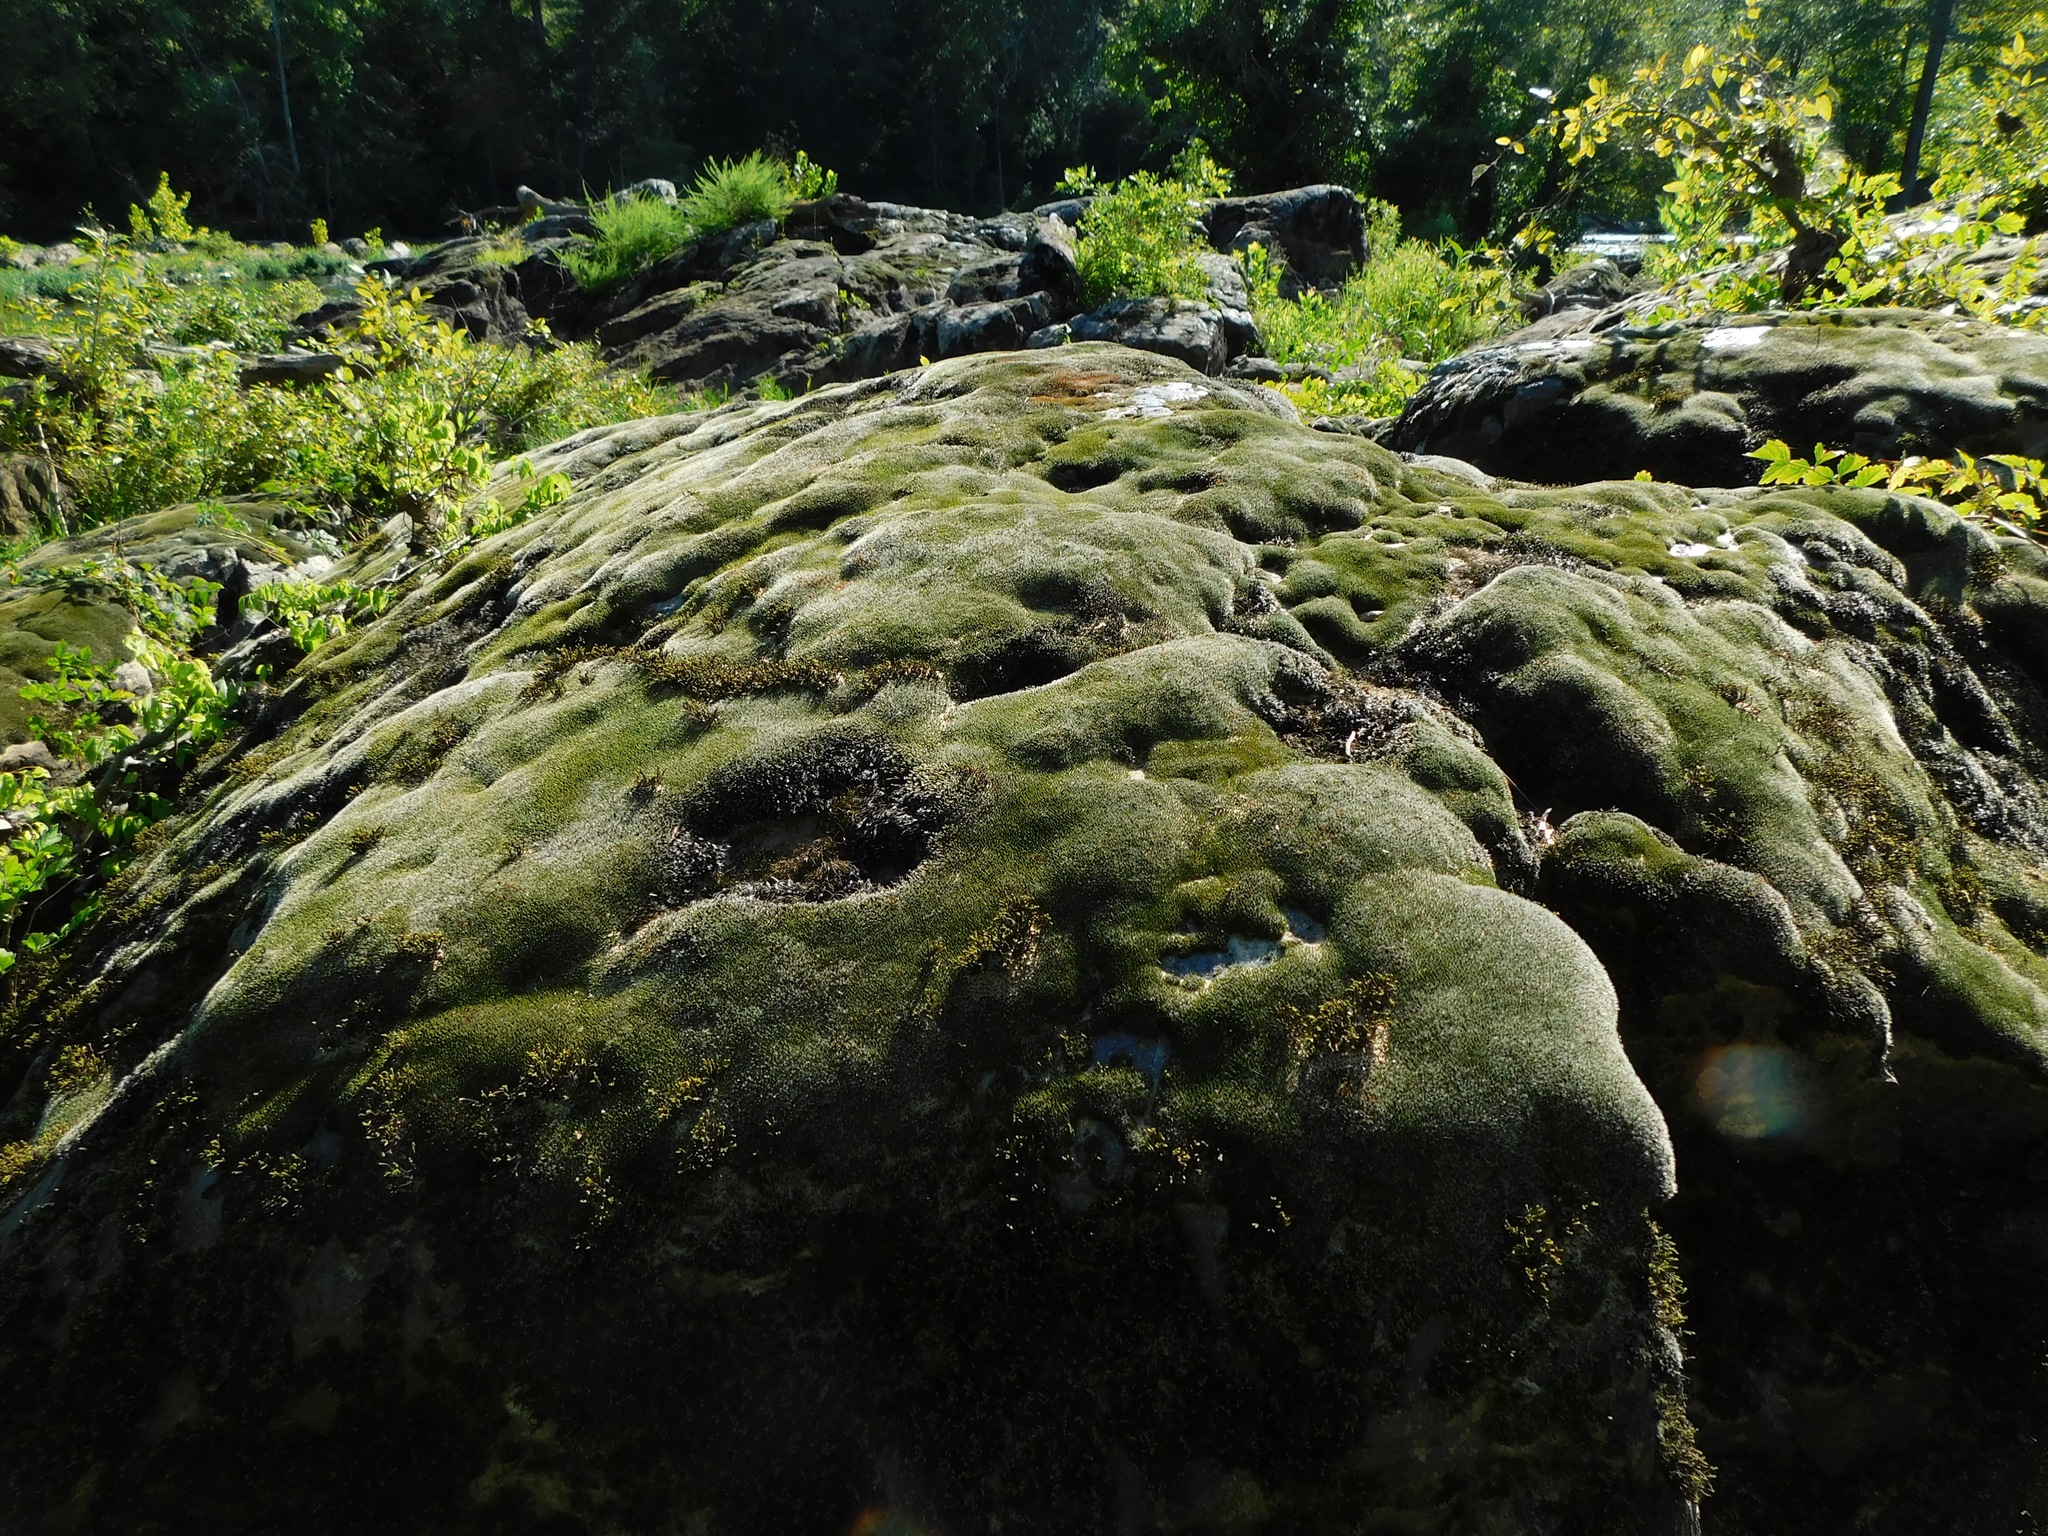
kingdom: Plantae
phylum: Bryophyta
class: Bryopsida
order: Grimmiales
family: Grimmiaceae
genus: Grimmia
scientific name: Grimmia laevigata
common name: Hoary grimmia
